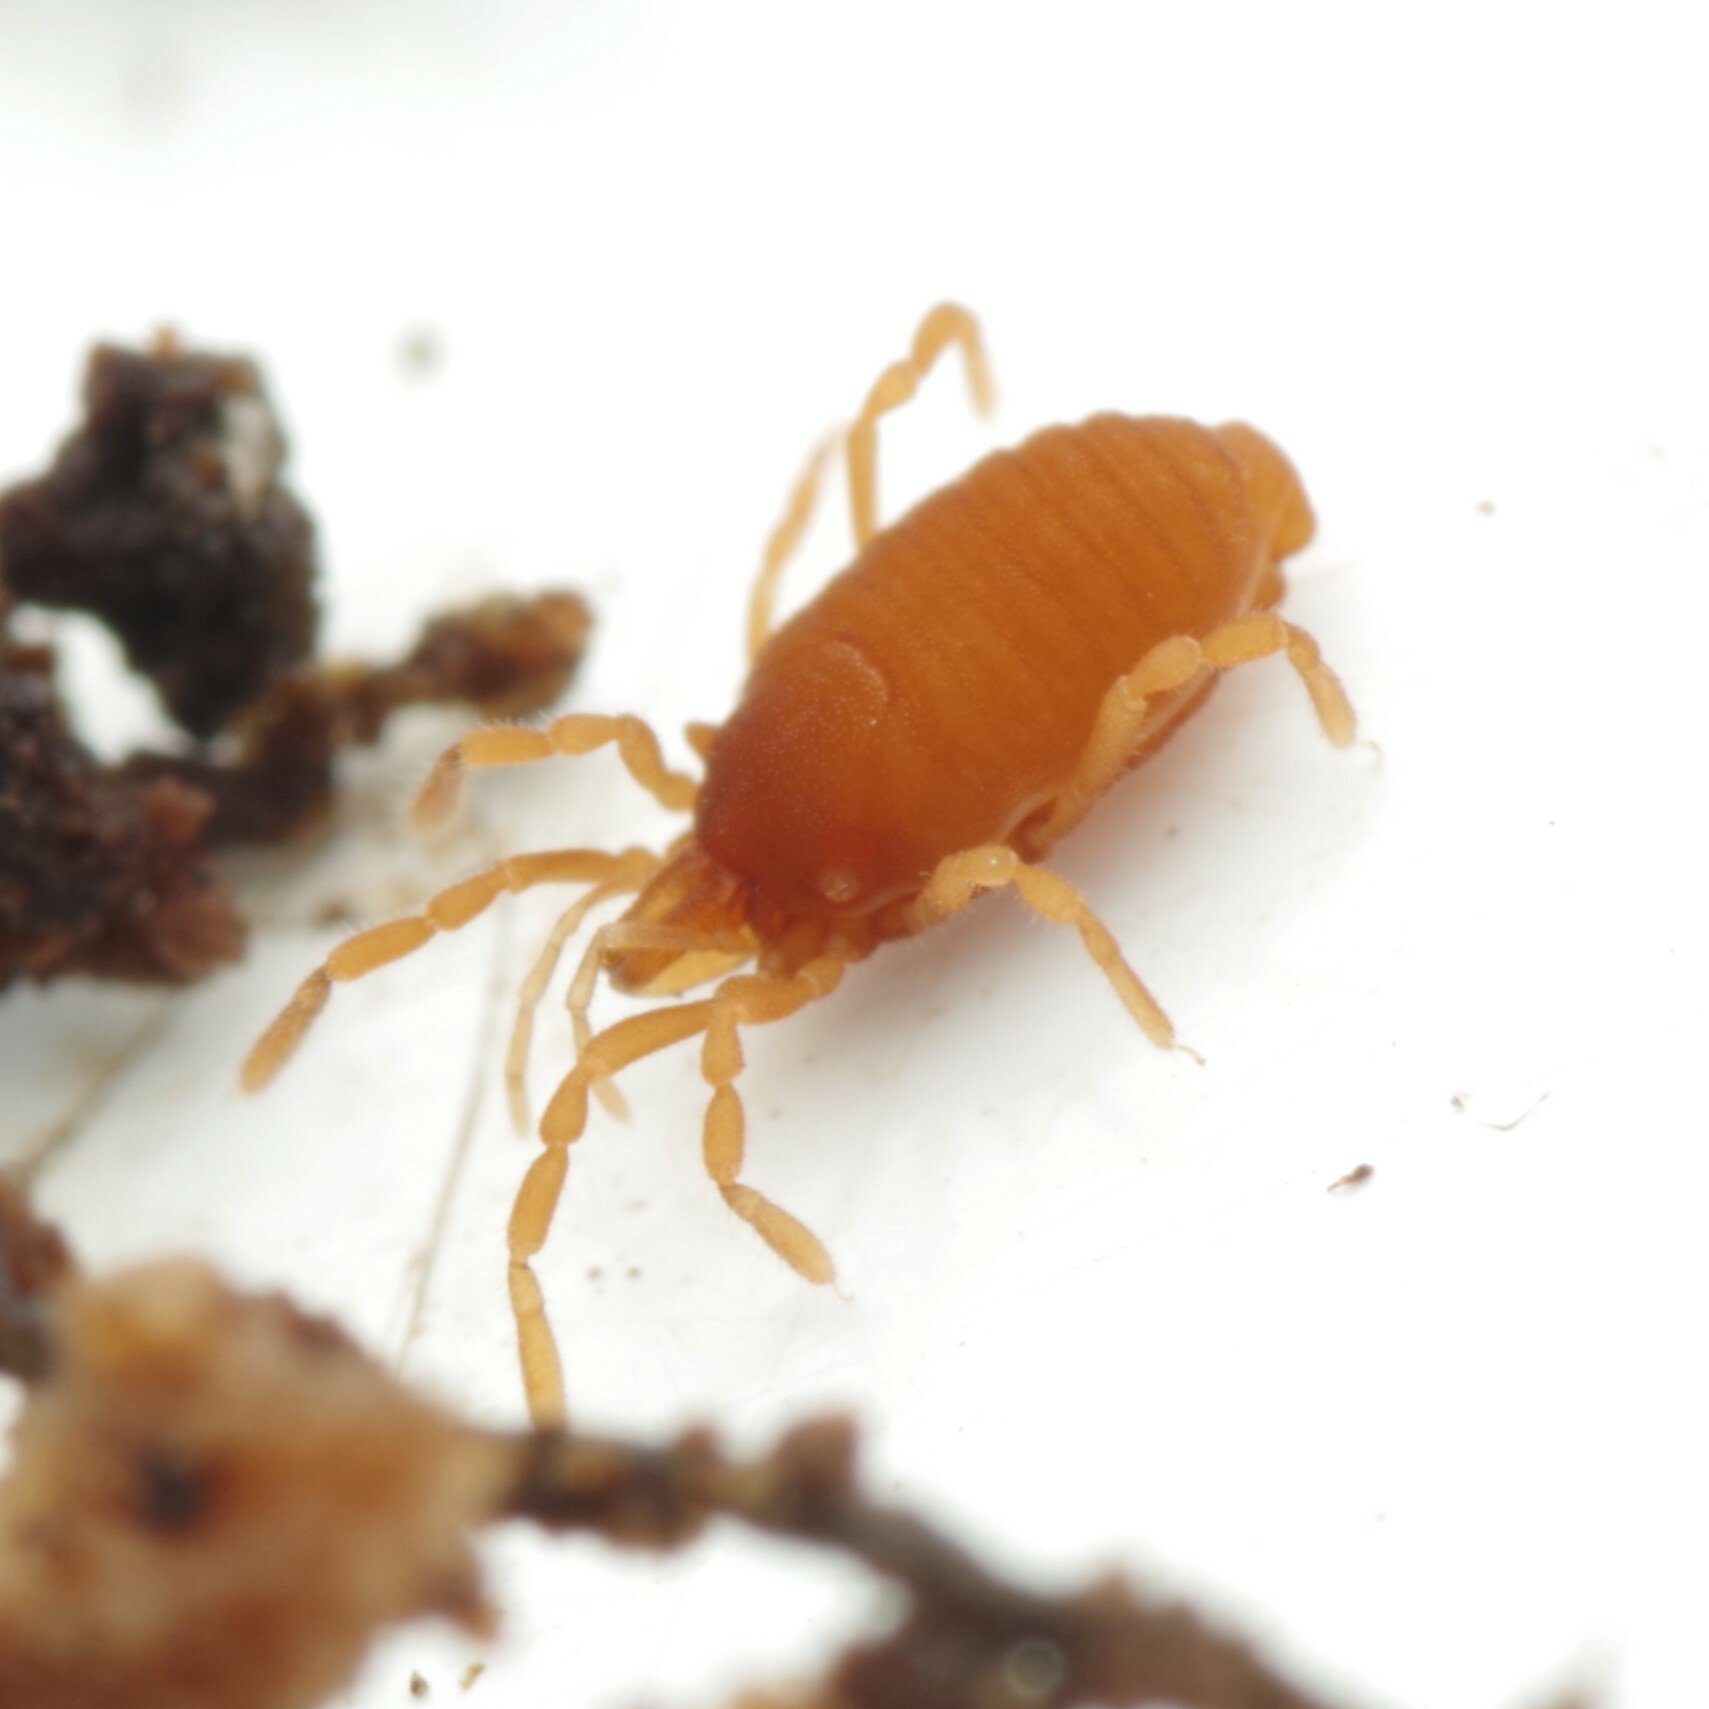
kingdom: Animalia
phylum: Arthropoda
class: Arachnida
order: Opiliones
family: Sironidae
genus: Siro
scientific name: Siro rubens
